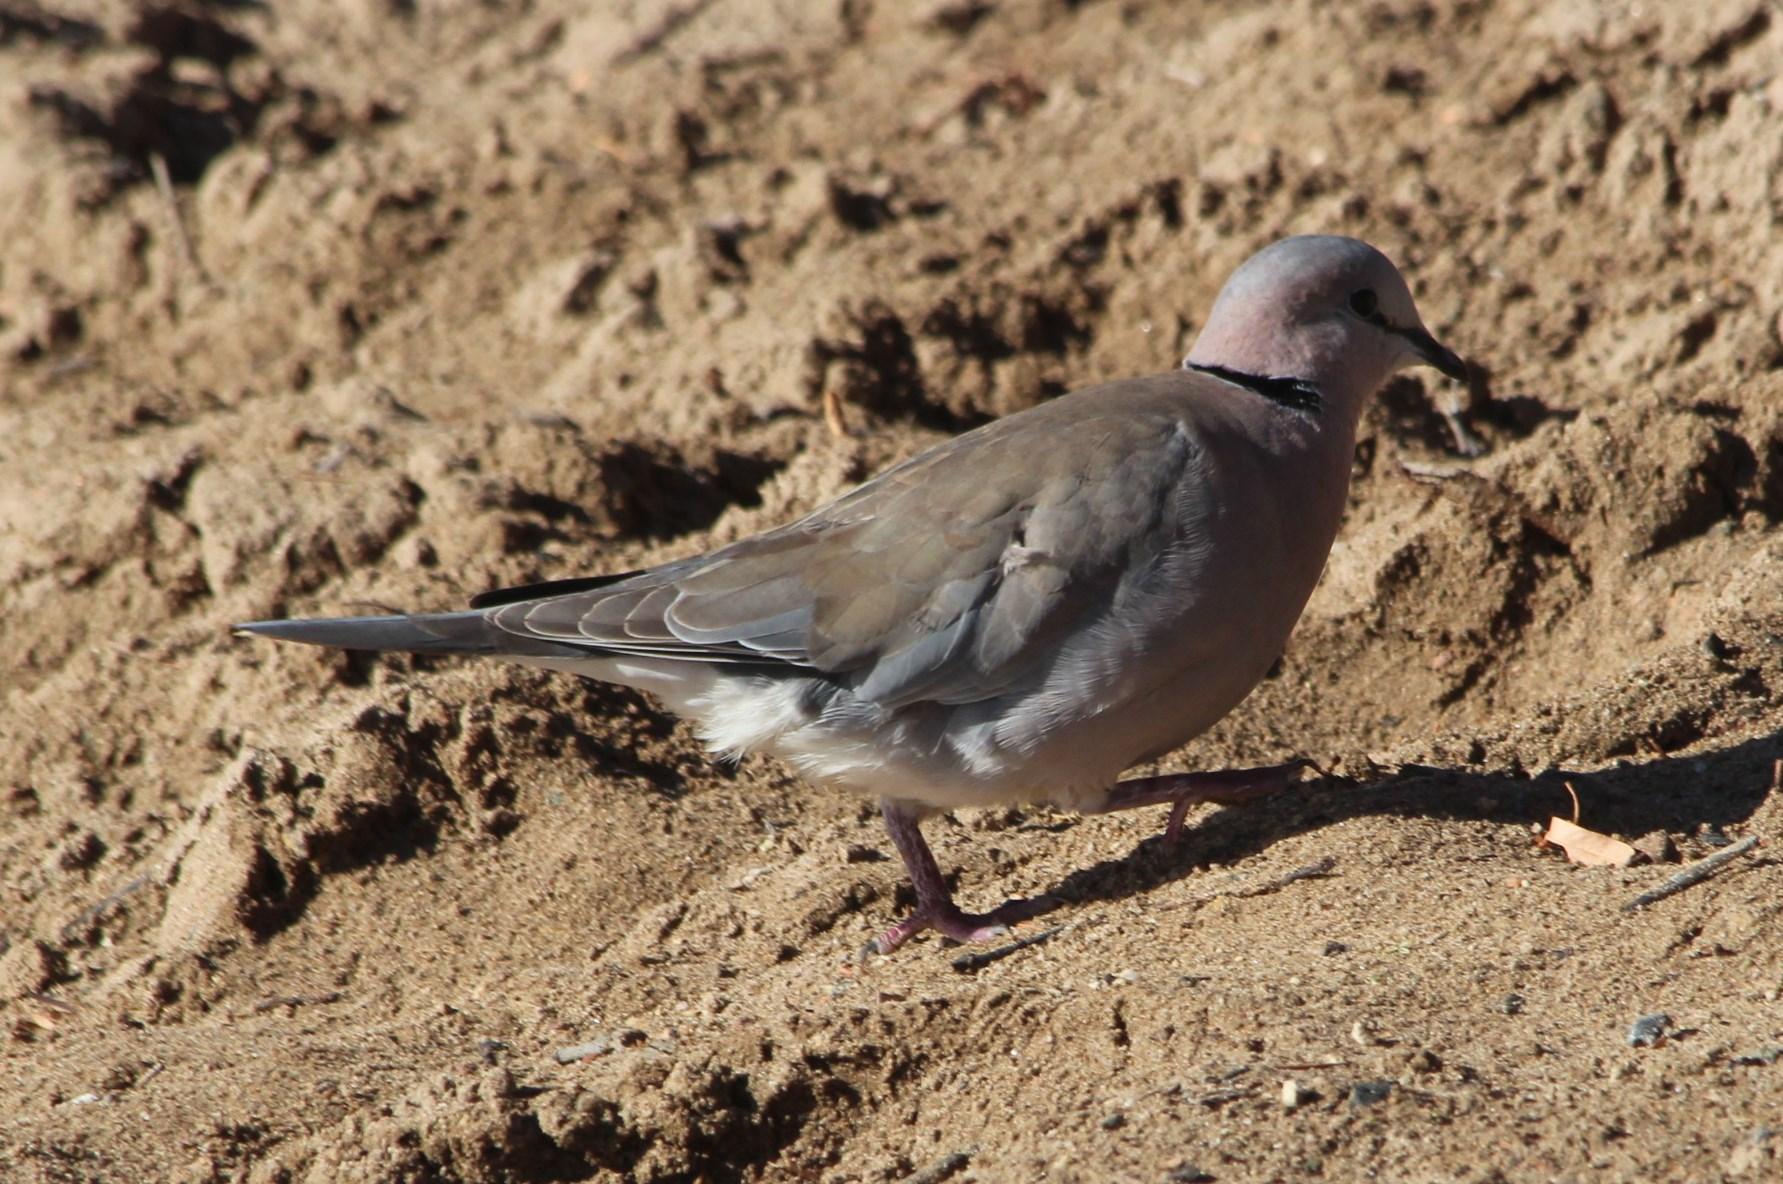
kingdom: Animalia
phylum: Chordata
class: Aves
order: Columbiformes
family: Columbidae
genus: Streptopelia
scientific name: Streptopelia capicola
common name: Ring-necked dove
